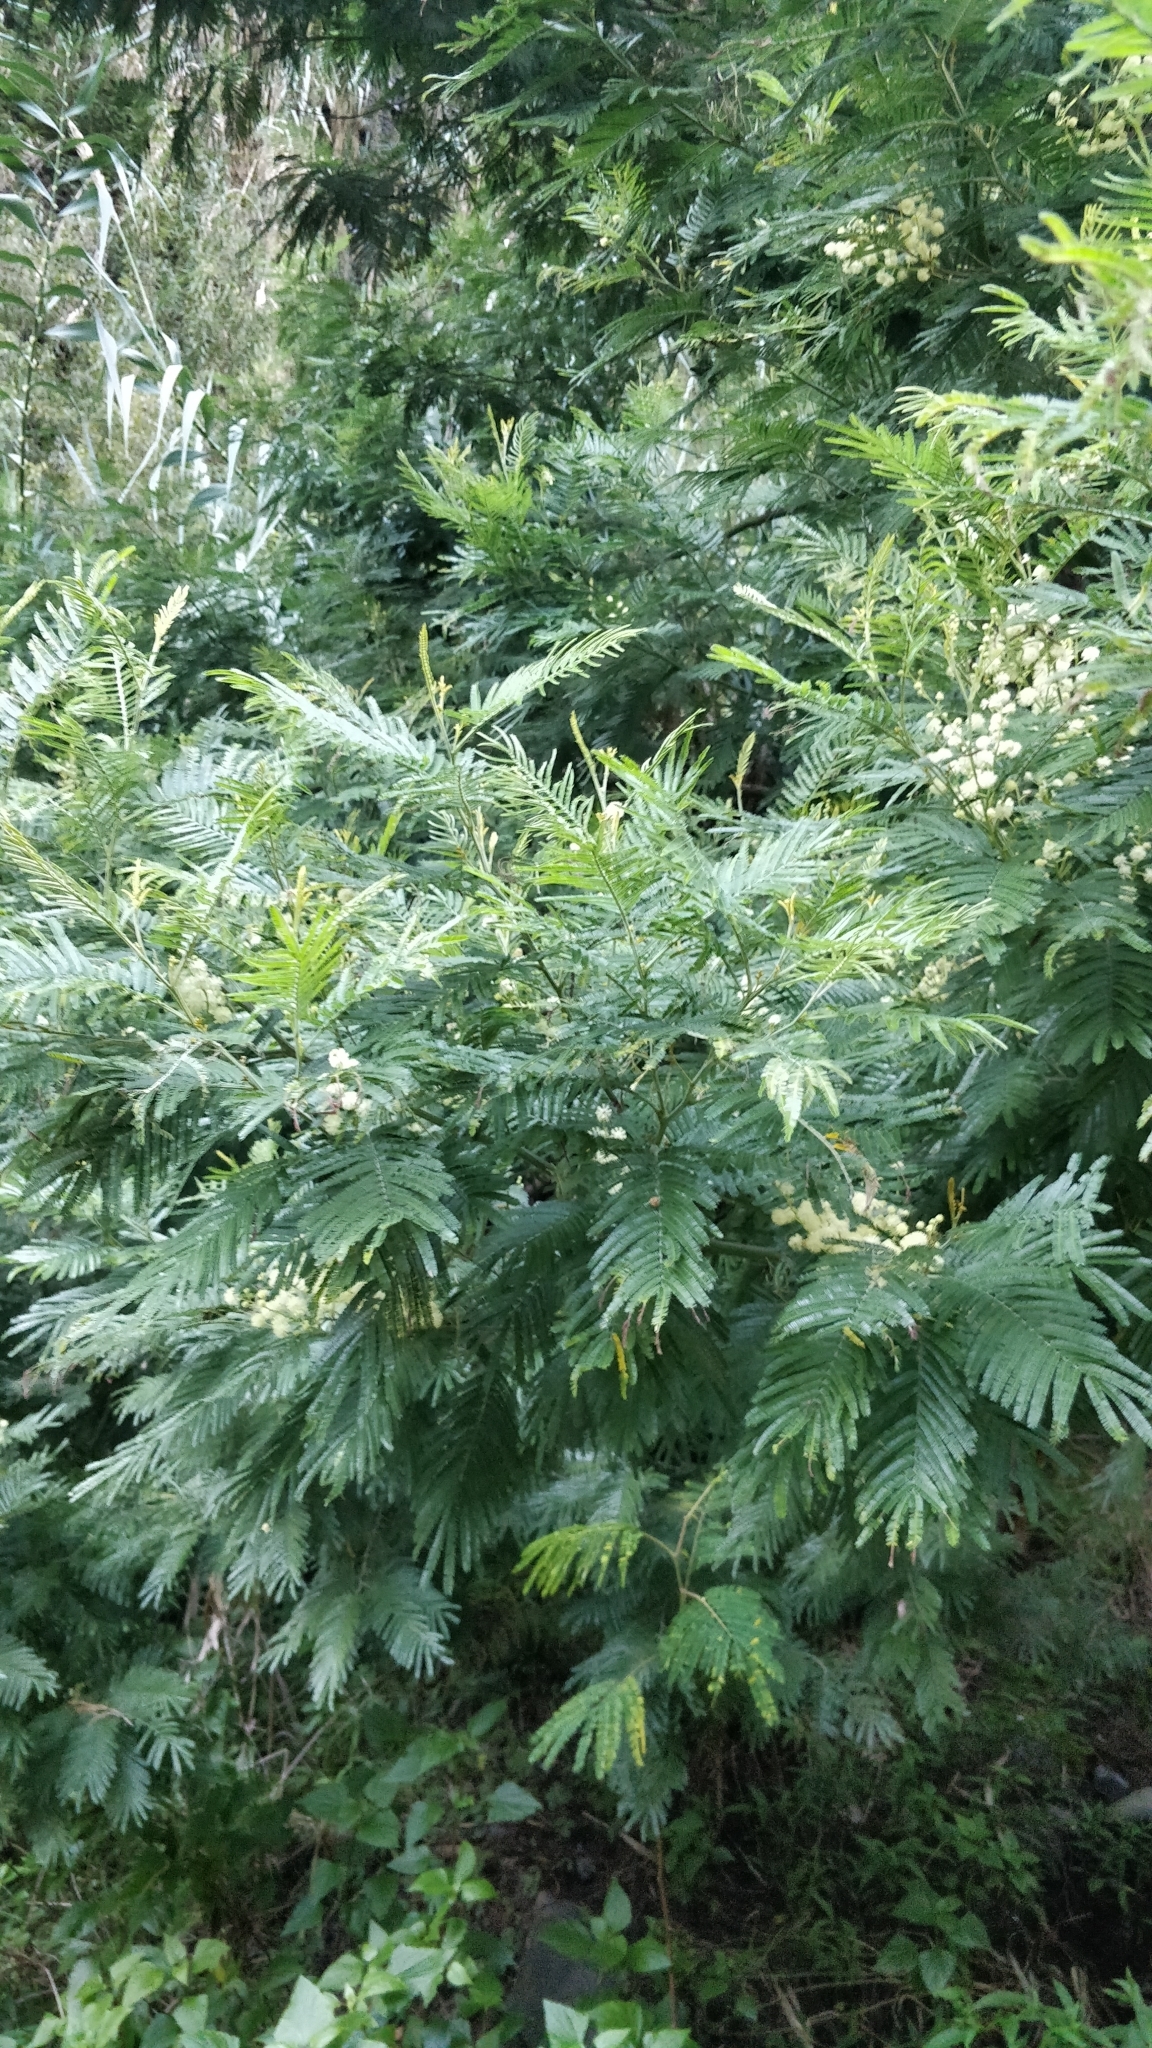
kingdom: Plantae
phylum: Tracheophyta
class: Magnoliopsida
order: Fabales
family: Fabaceae
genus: Acacia
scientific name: Acacia mearnsii
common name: Black wattle
